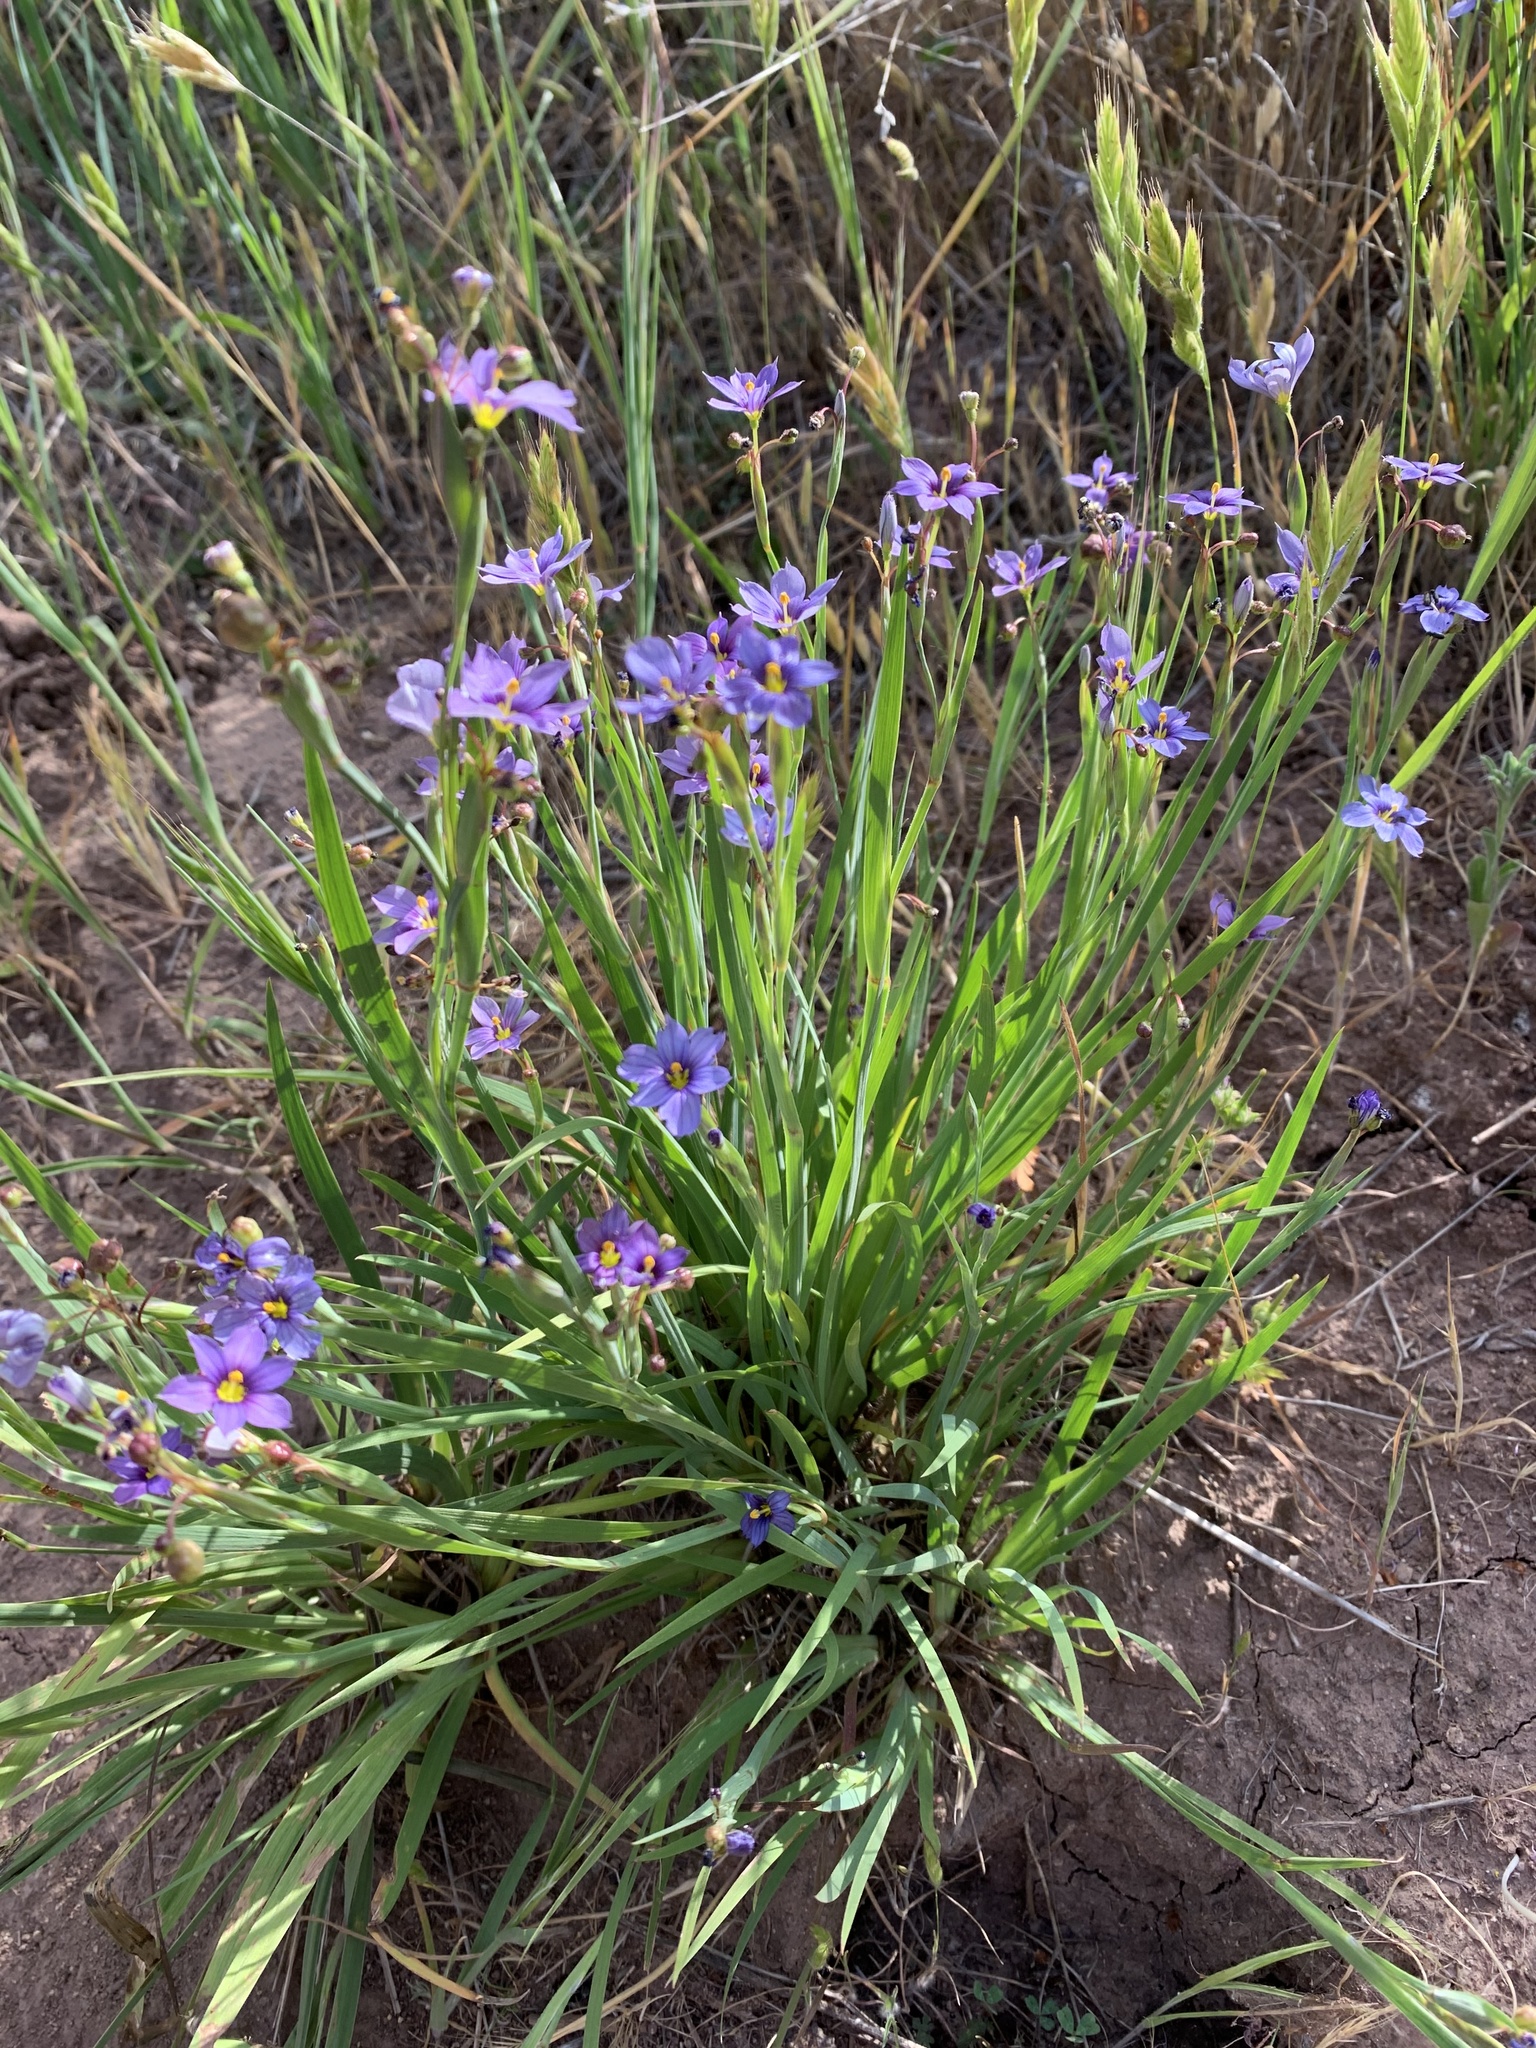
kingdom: Plantae
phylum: Tracheophyta
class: Liliopsida
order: Asparagales
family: Iridaceae
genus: Sisyrinchium
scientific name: Sisyrinchium bellum
